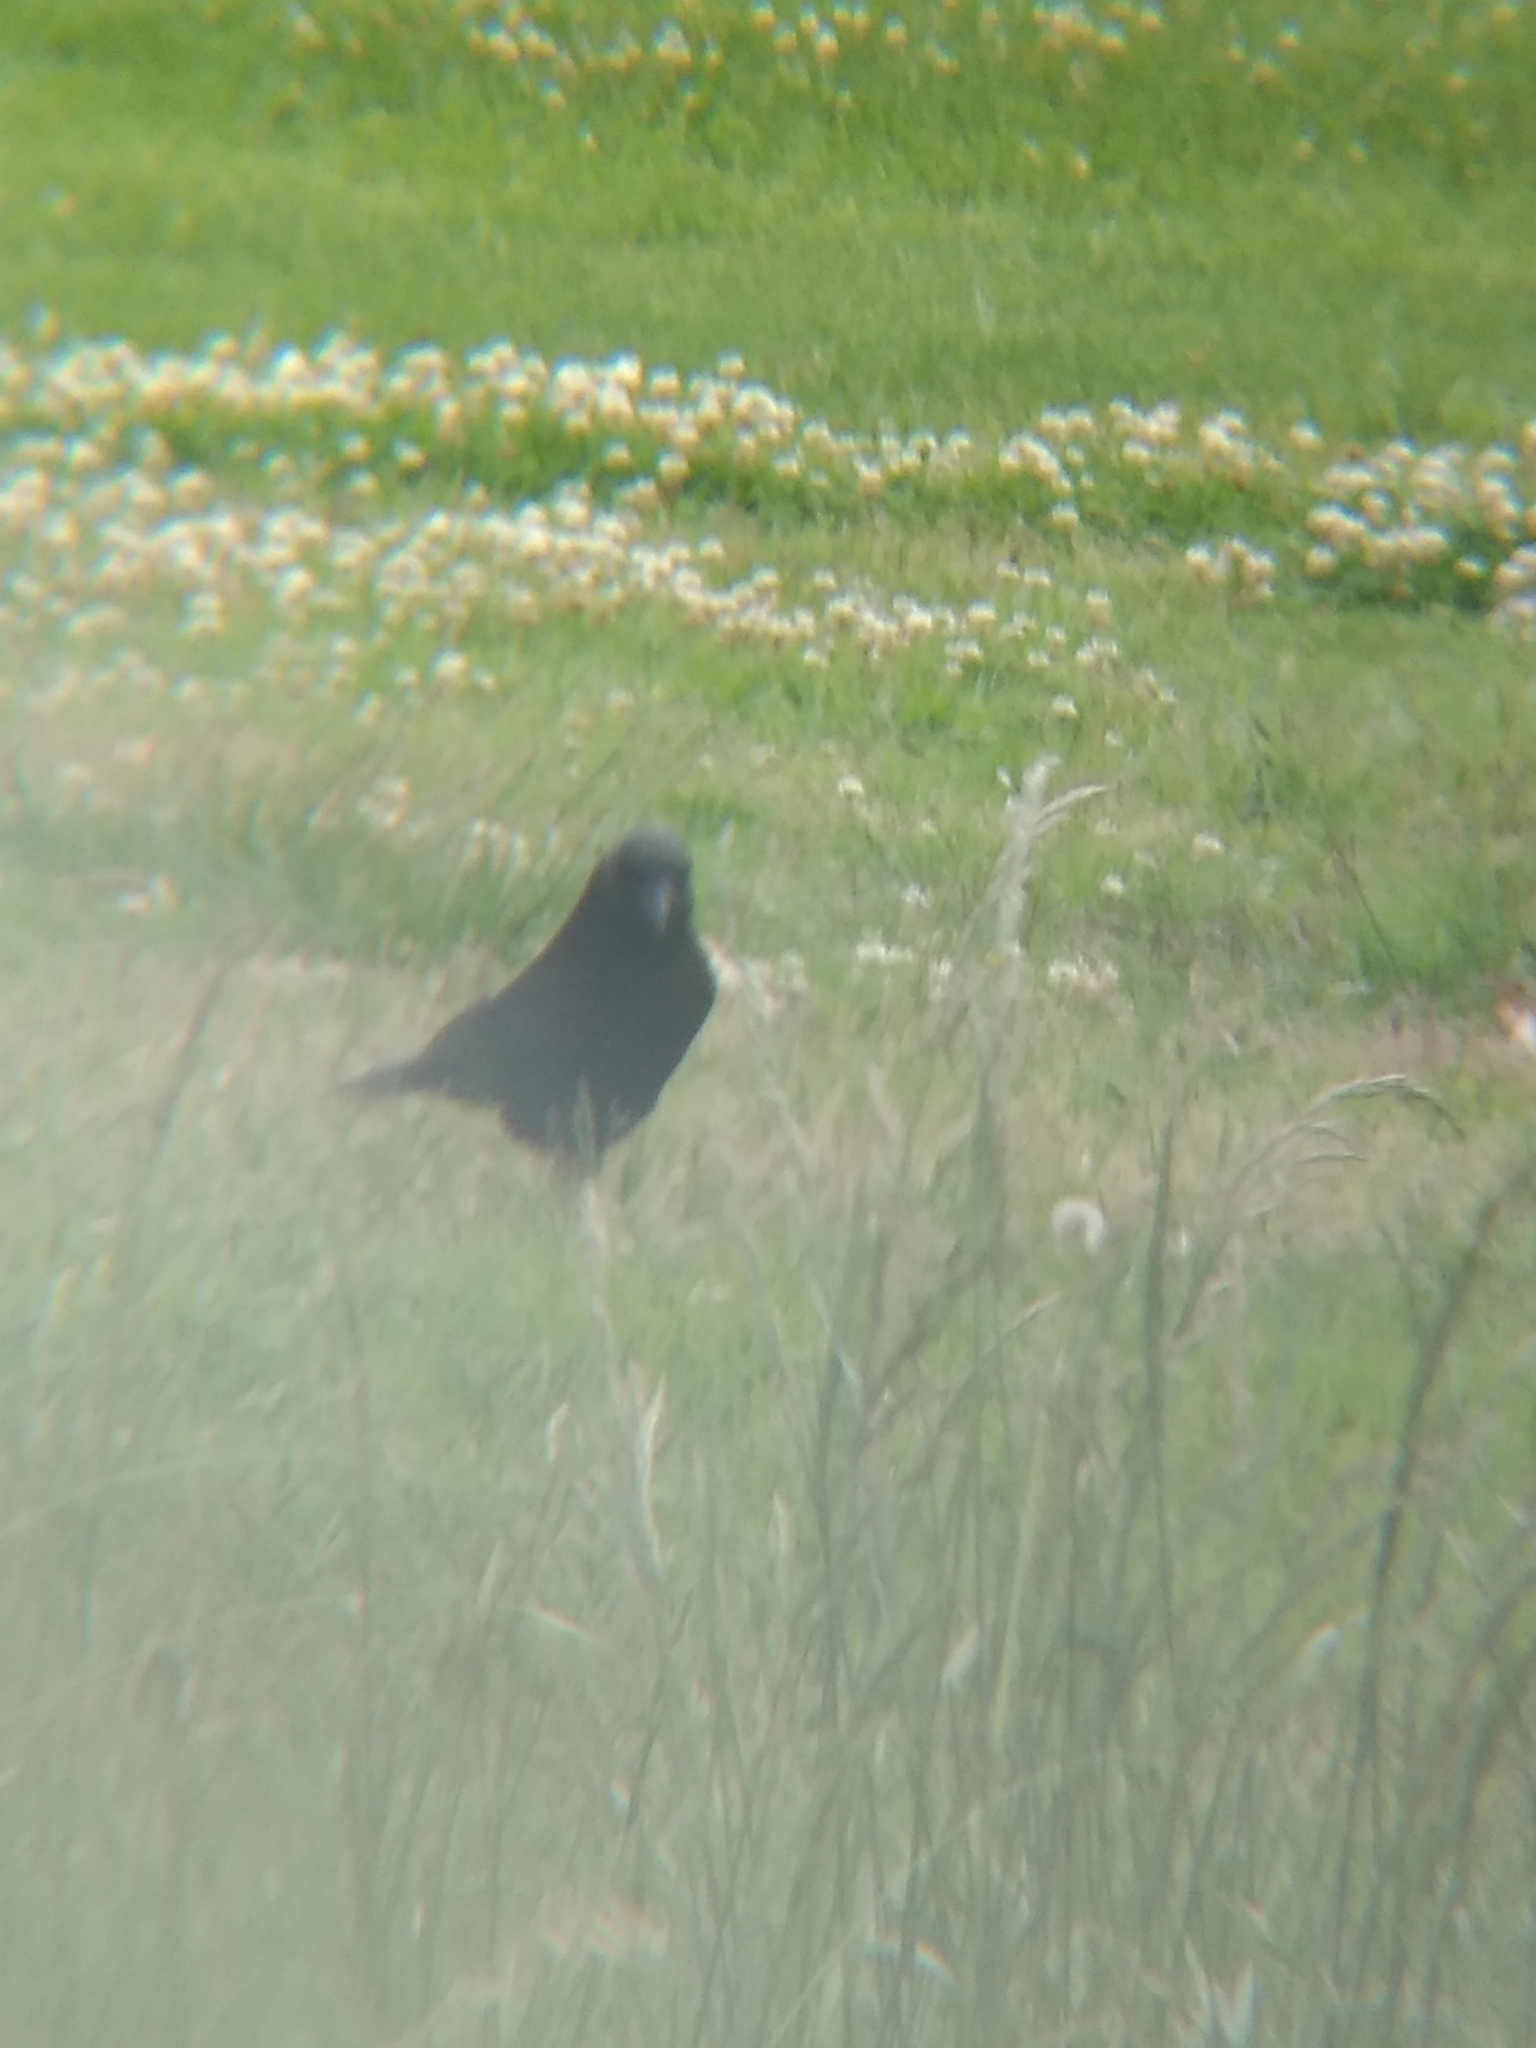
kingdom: Animalia
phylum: Chordata
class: Aves
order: Passeriformes
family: Corvidae
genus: Corvus
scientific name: Corvus brachyrhynchos
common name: American crow
